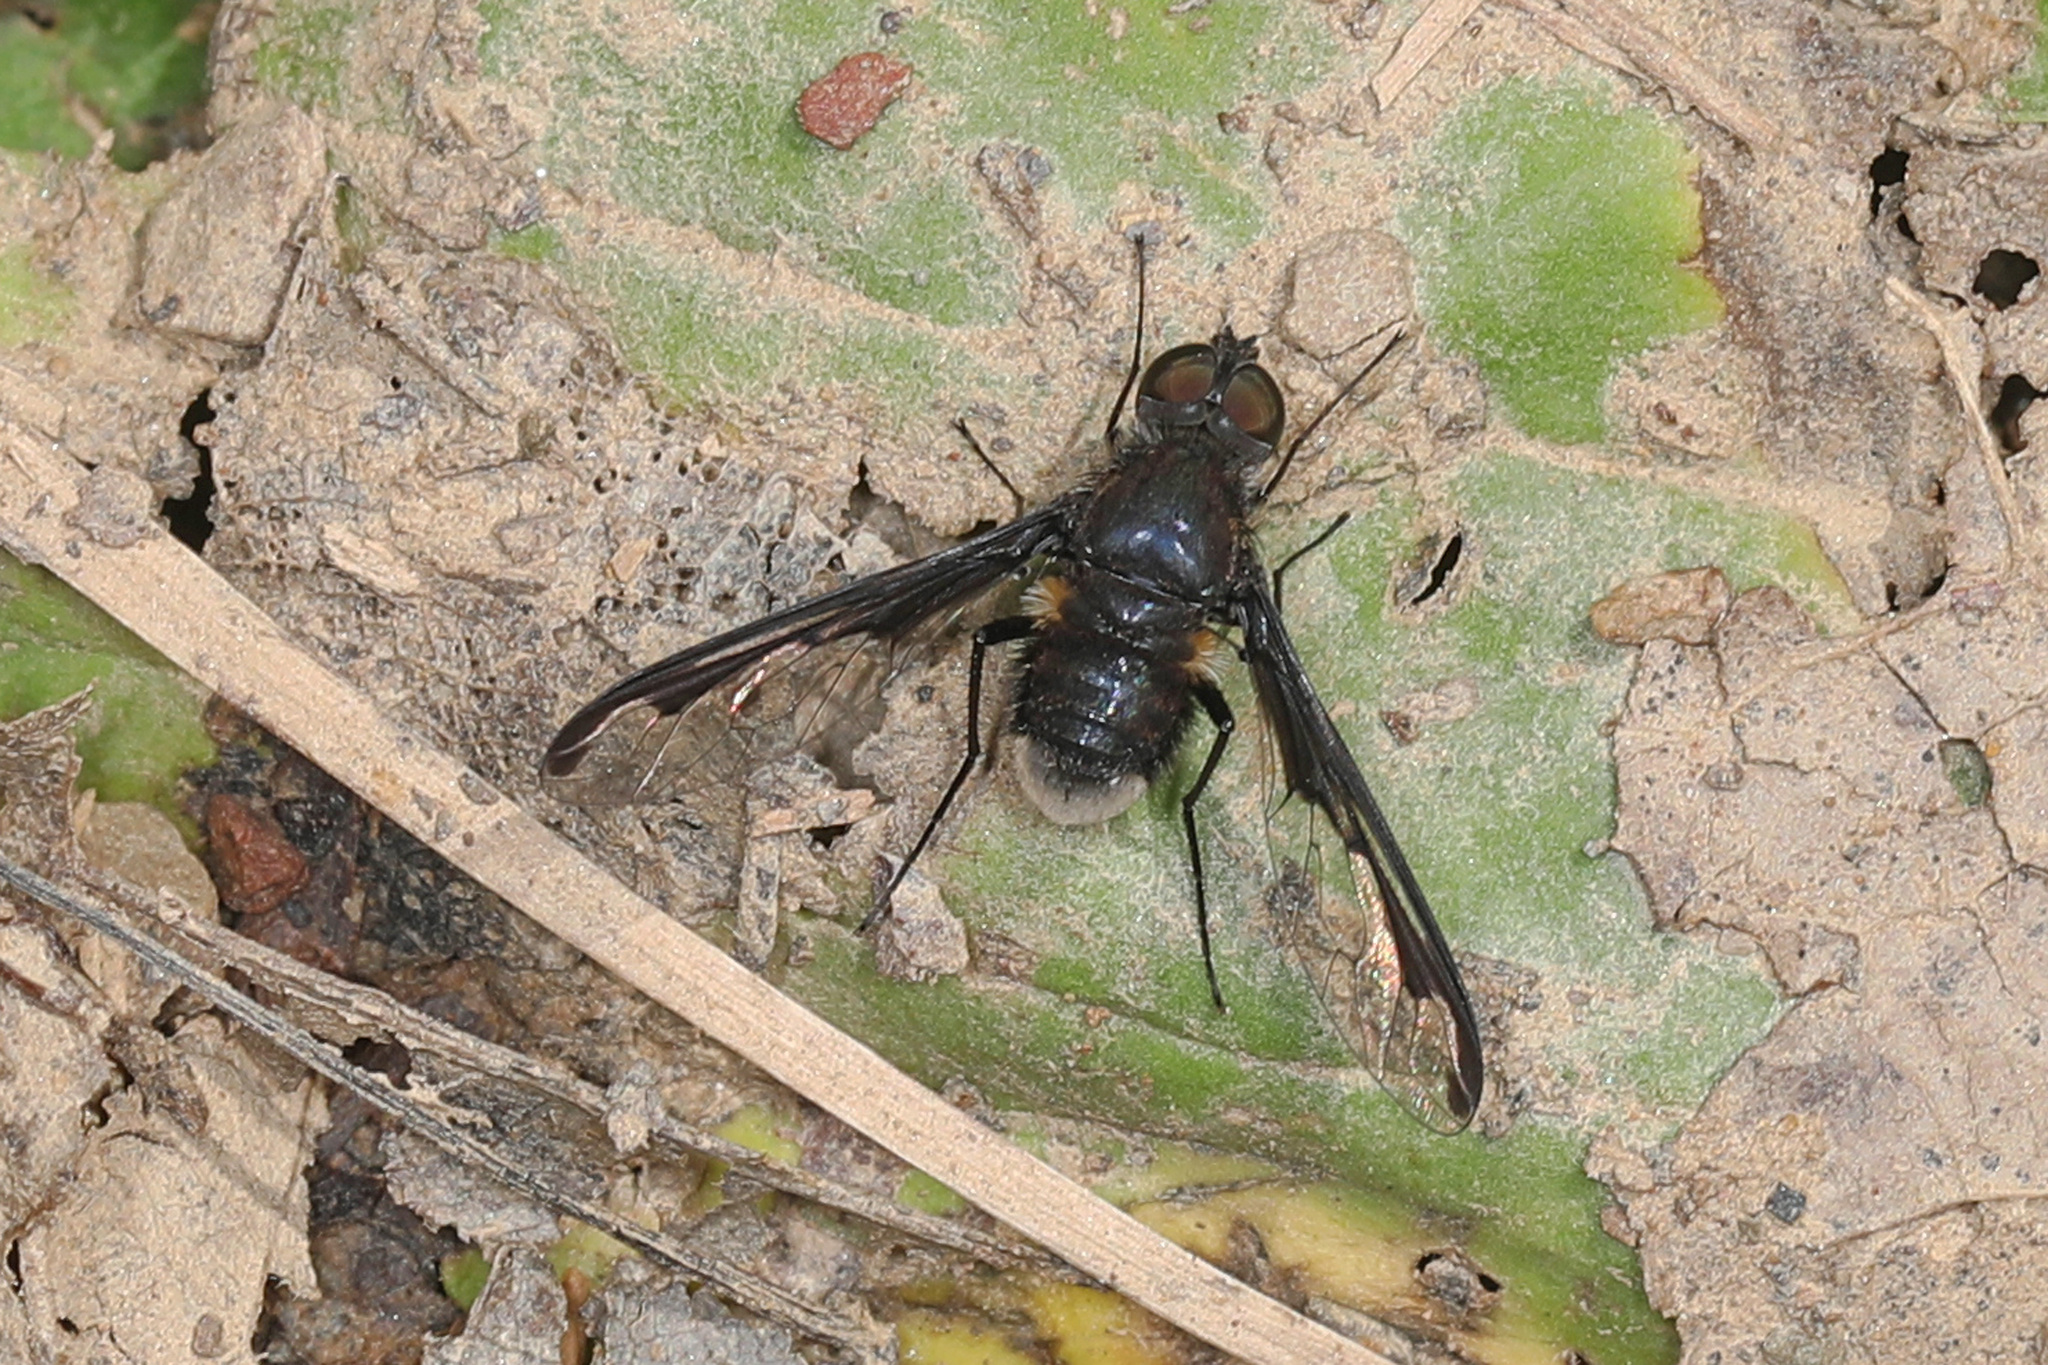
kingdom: Animalia
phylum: Arthropoda
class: Insecta
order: Diptera
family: Bombyliidae
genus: Anthrax
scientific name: Anthrax argyropygus
